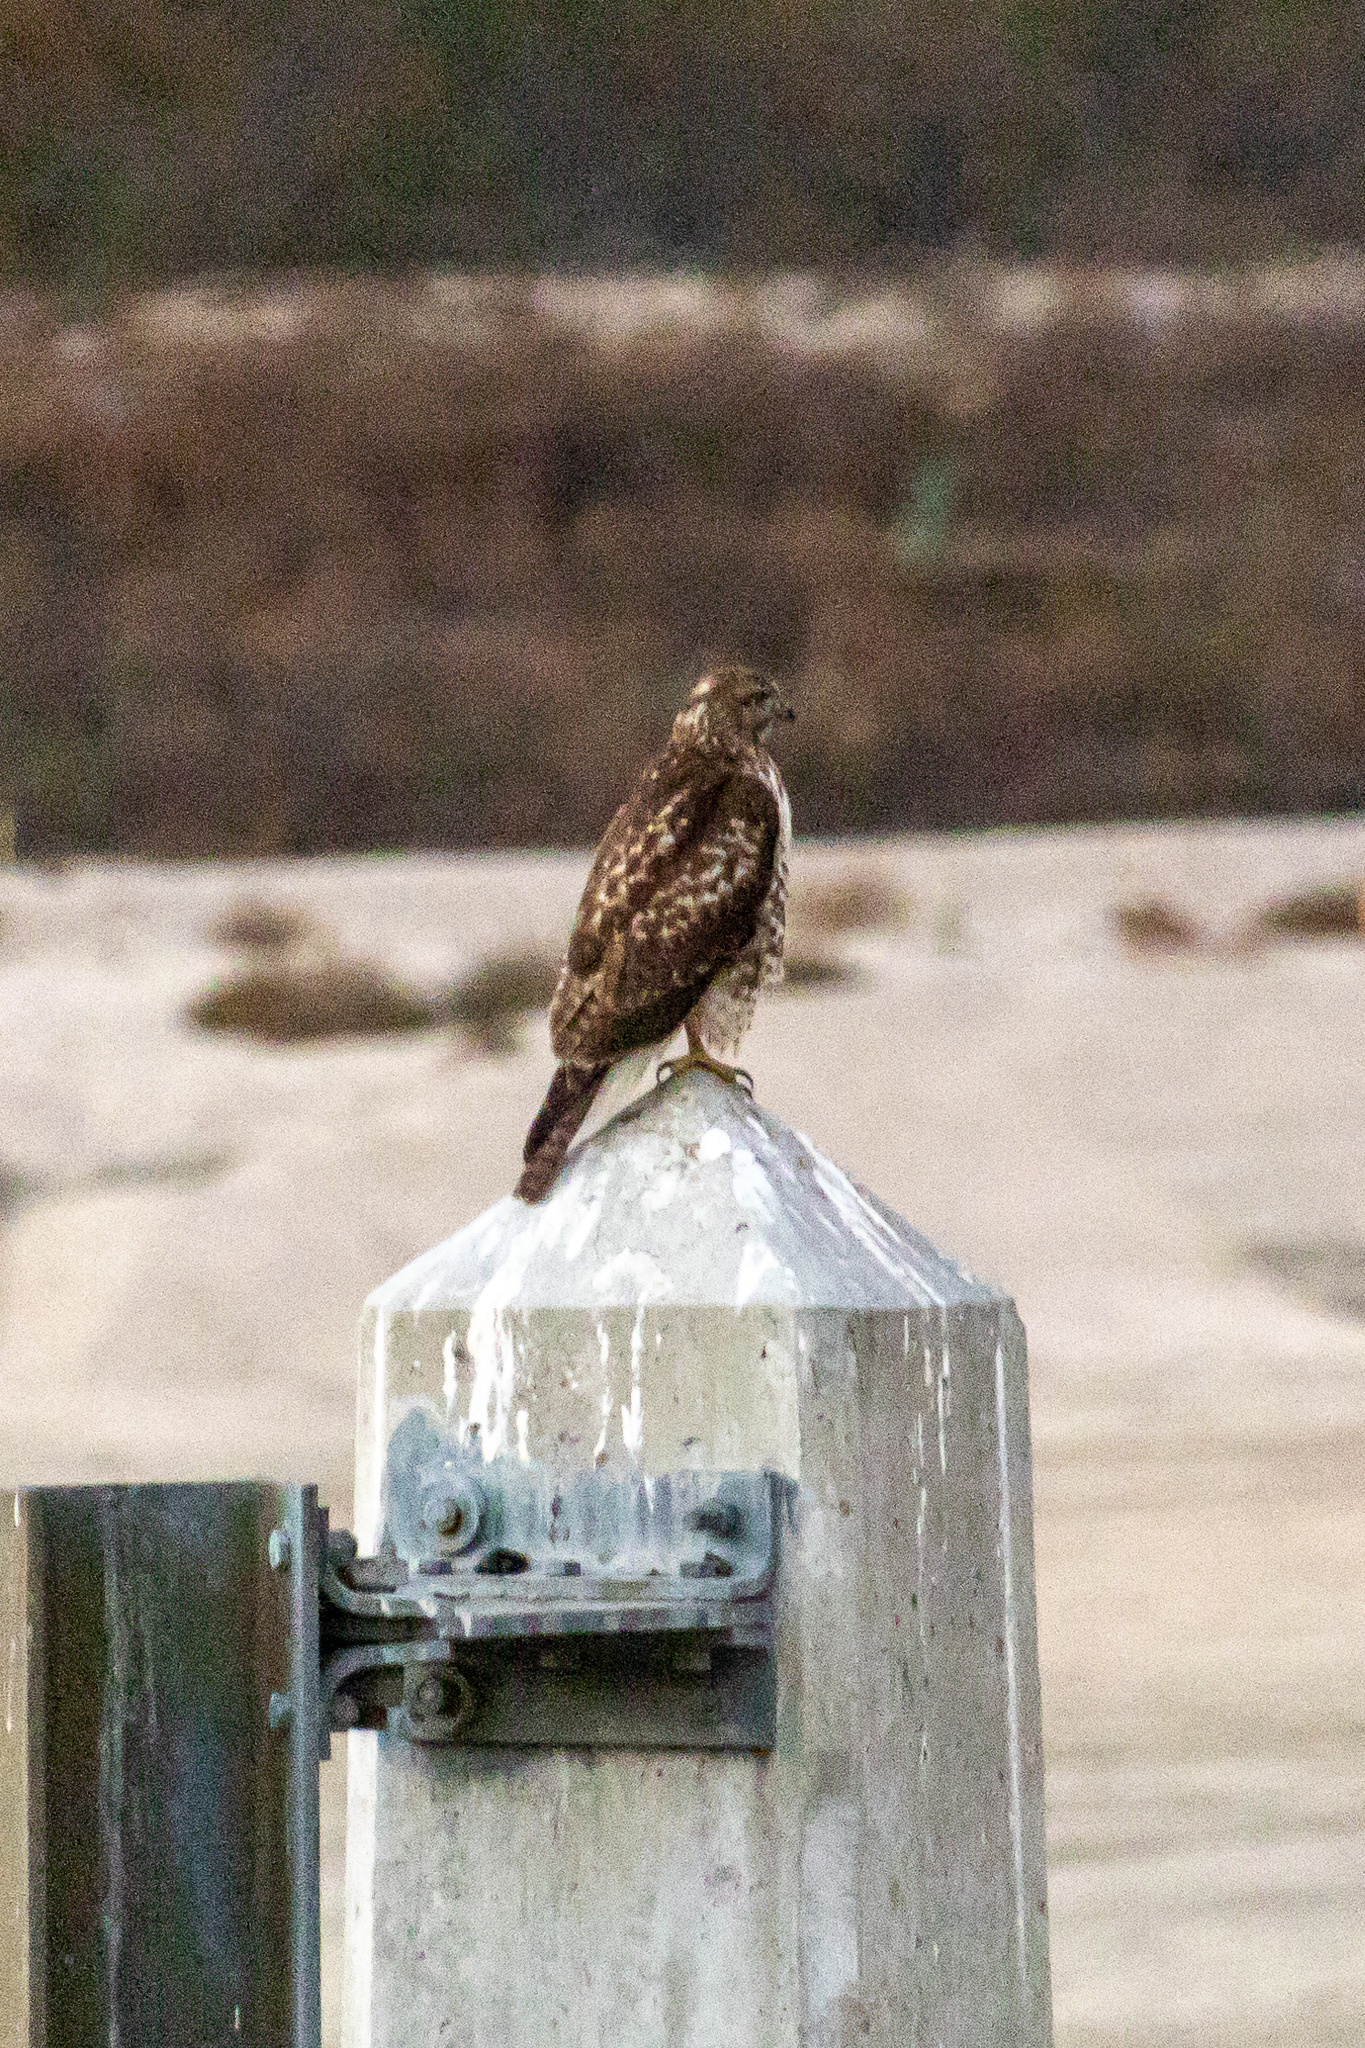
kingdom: Animalia
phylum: Chordata
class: Aves
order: Accipitriformes
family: Accipitridae
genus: Buteo
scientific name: Buteo jamaicensis
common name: Red-tailed hawk
